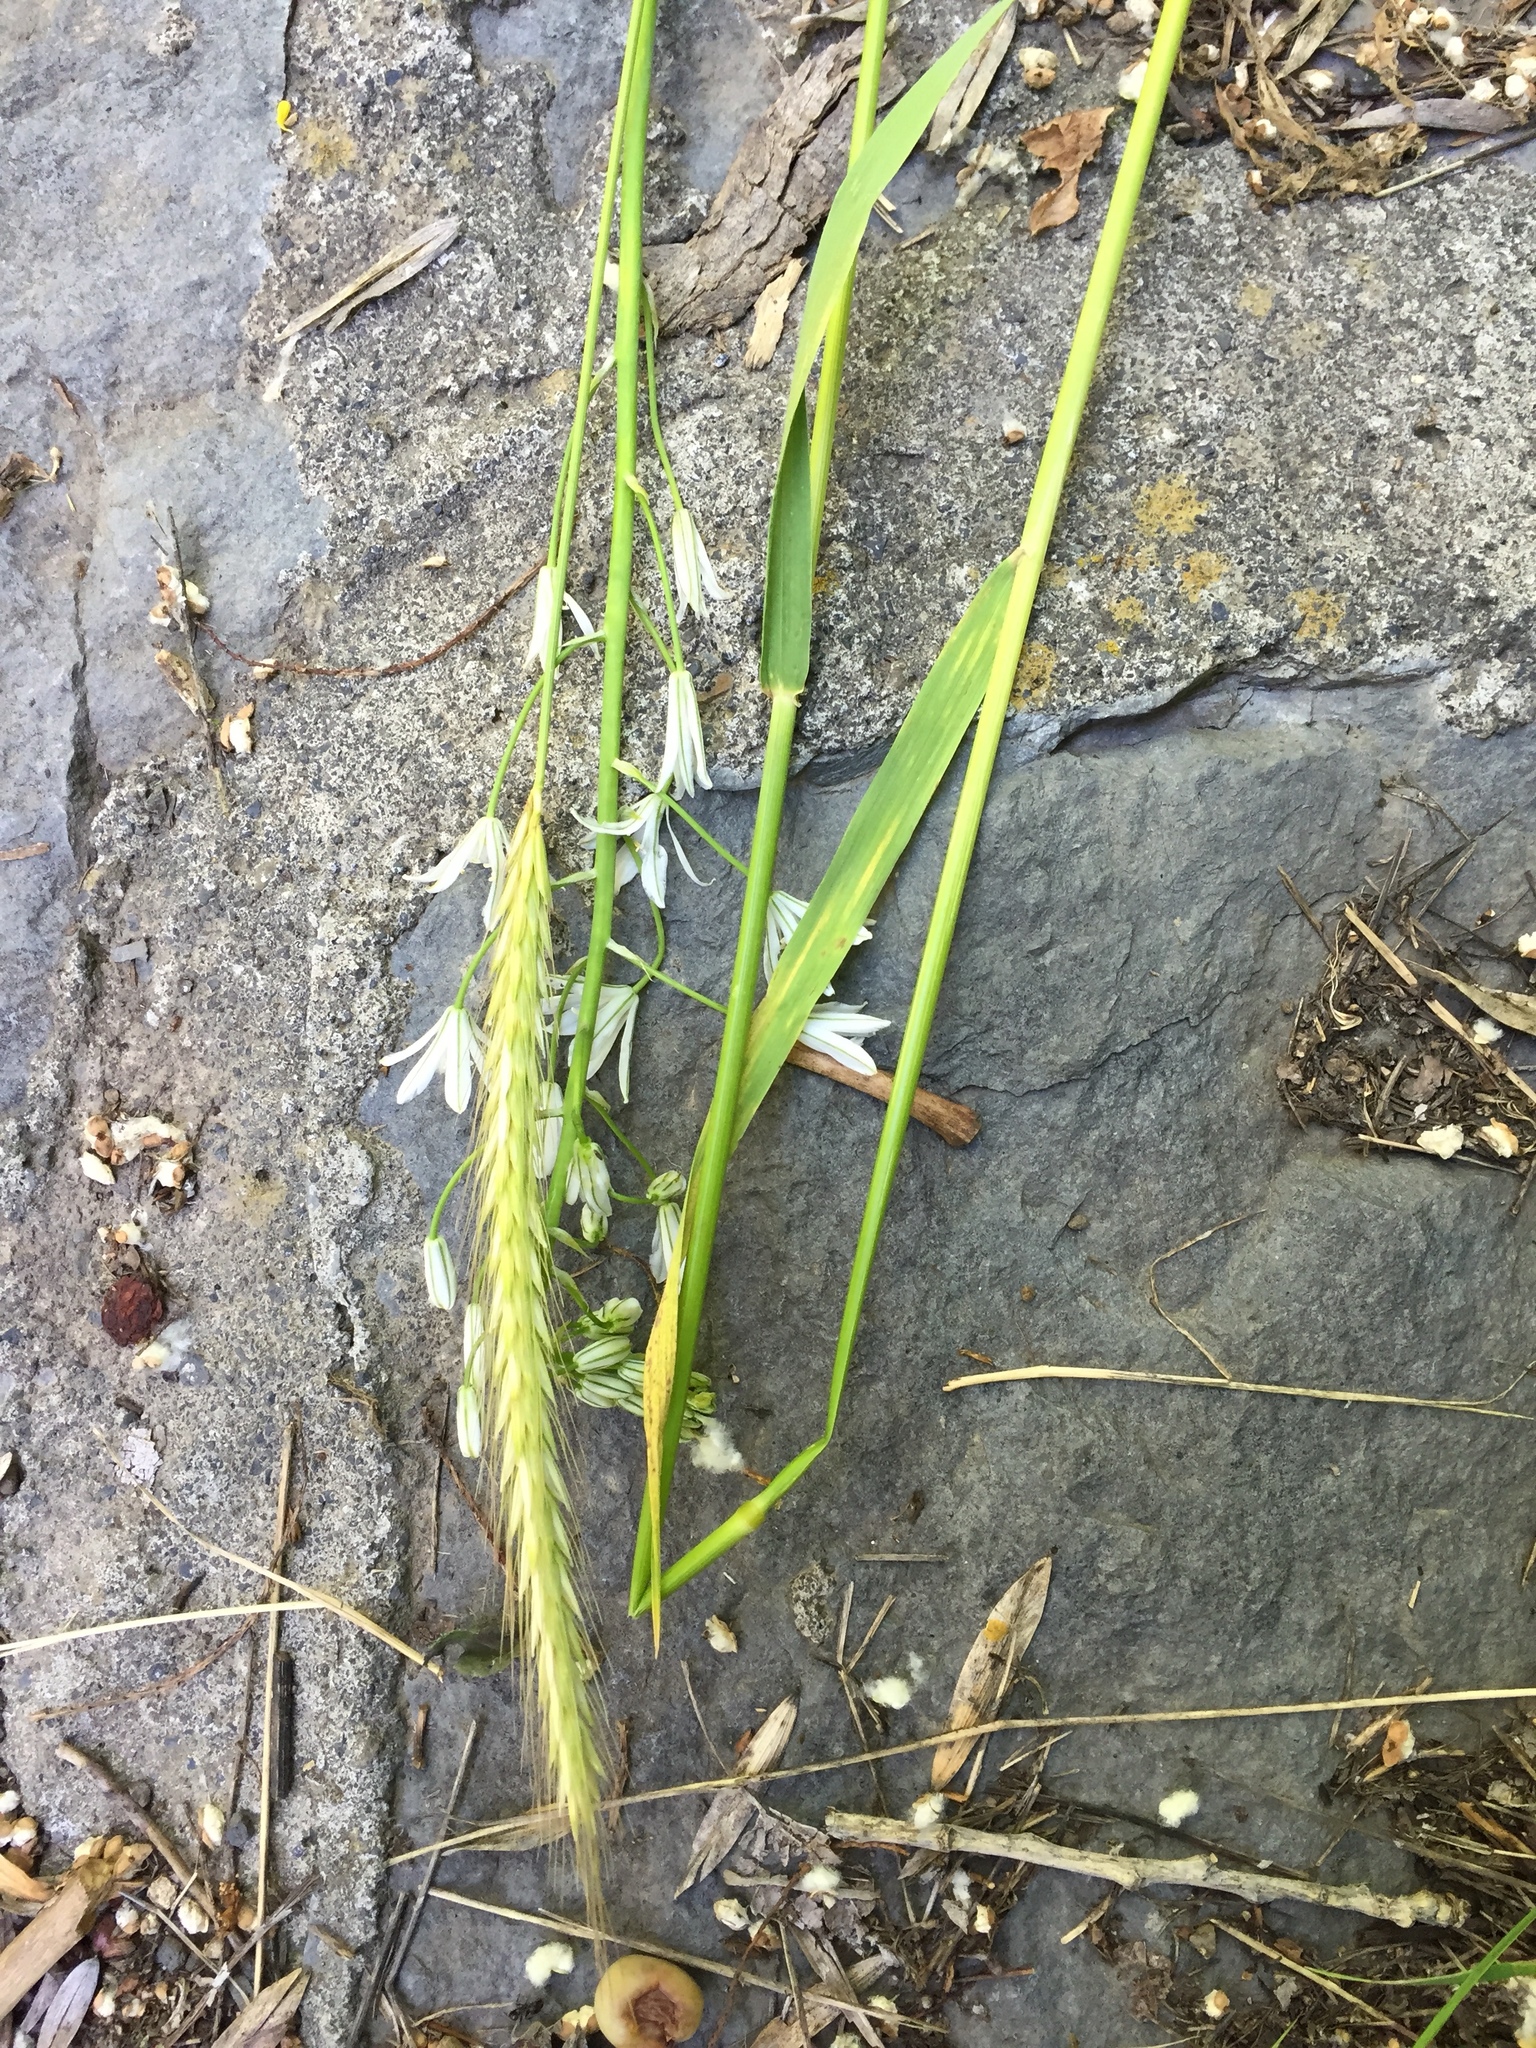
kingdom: Plantae
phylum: Tracheophyta
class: Liliopsida
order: Poales
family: Poaceae
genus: Hordeum
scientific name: Hordeum bulbosum
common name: Bulbous barley
